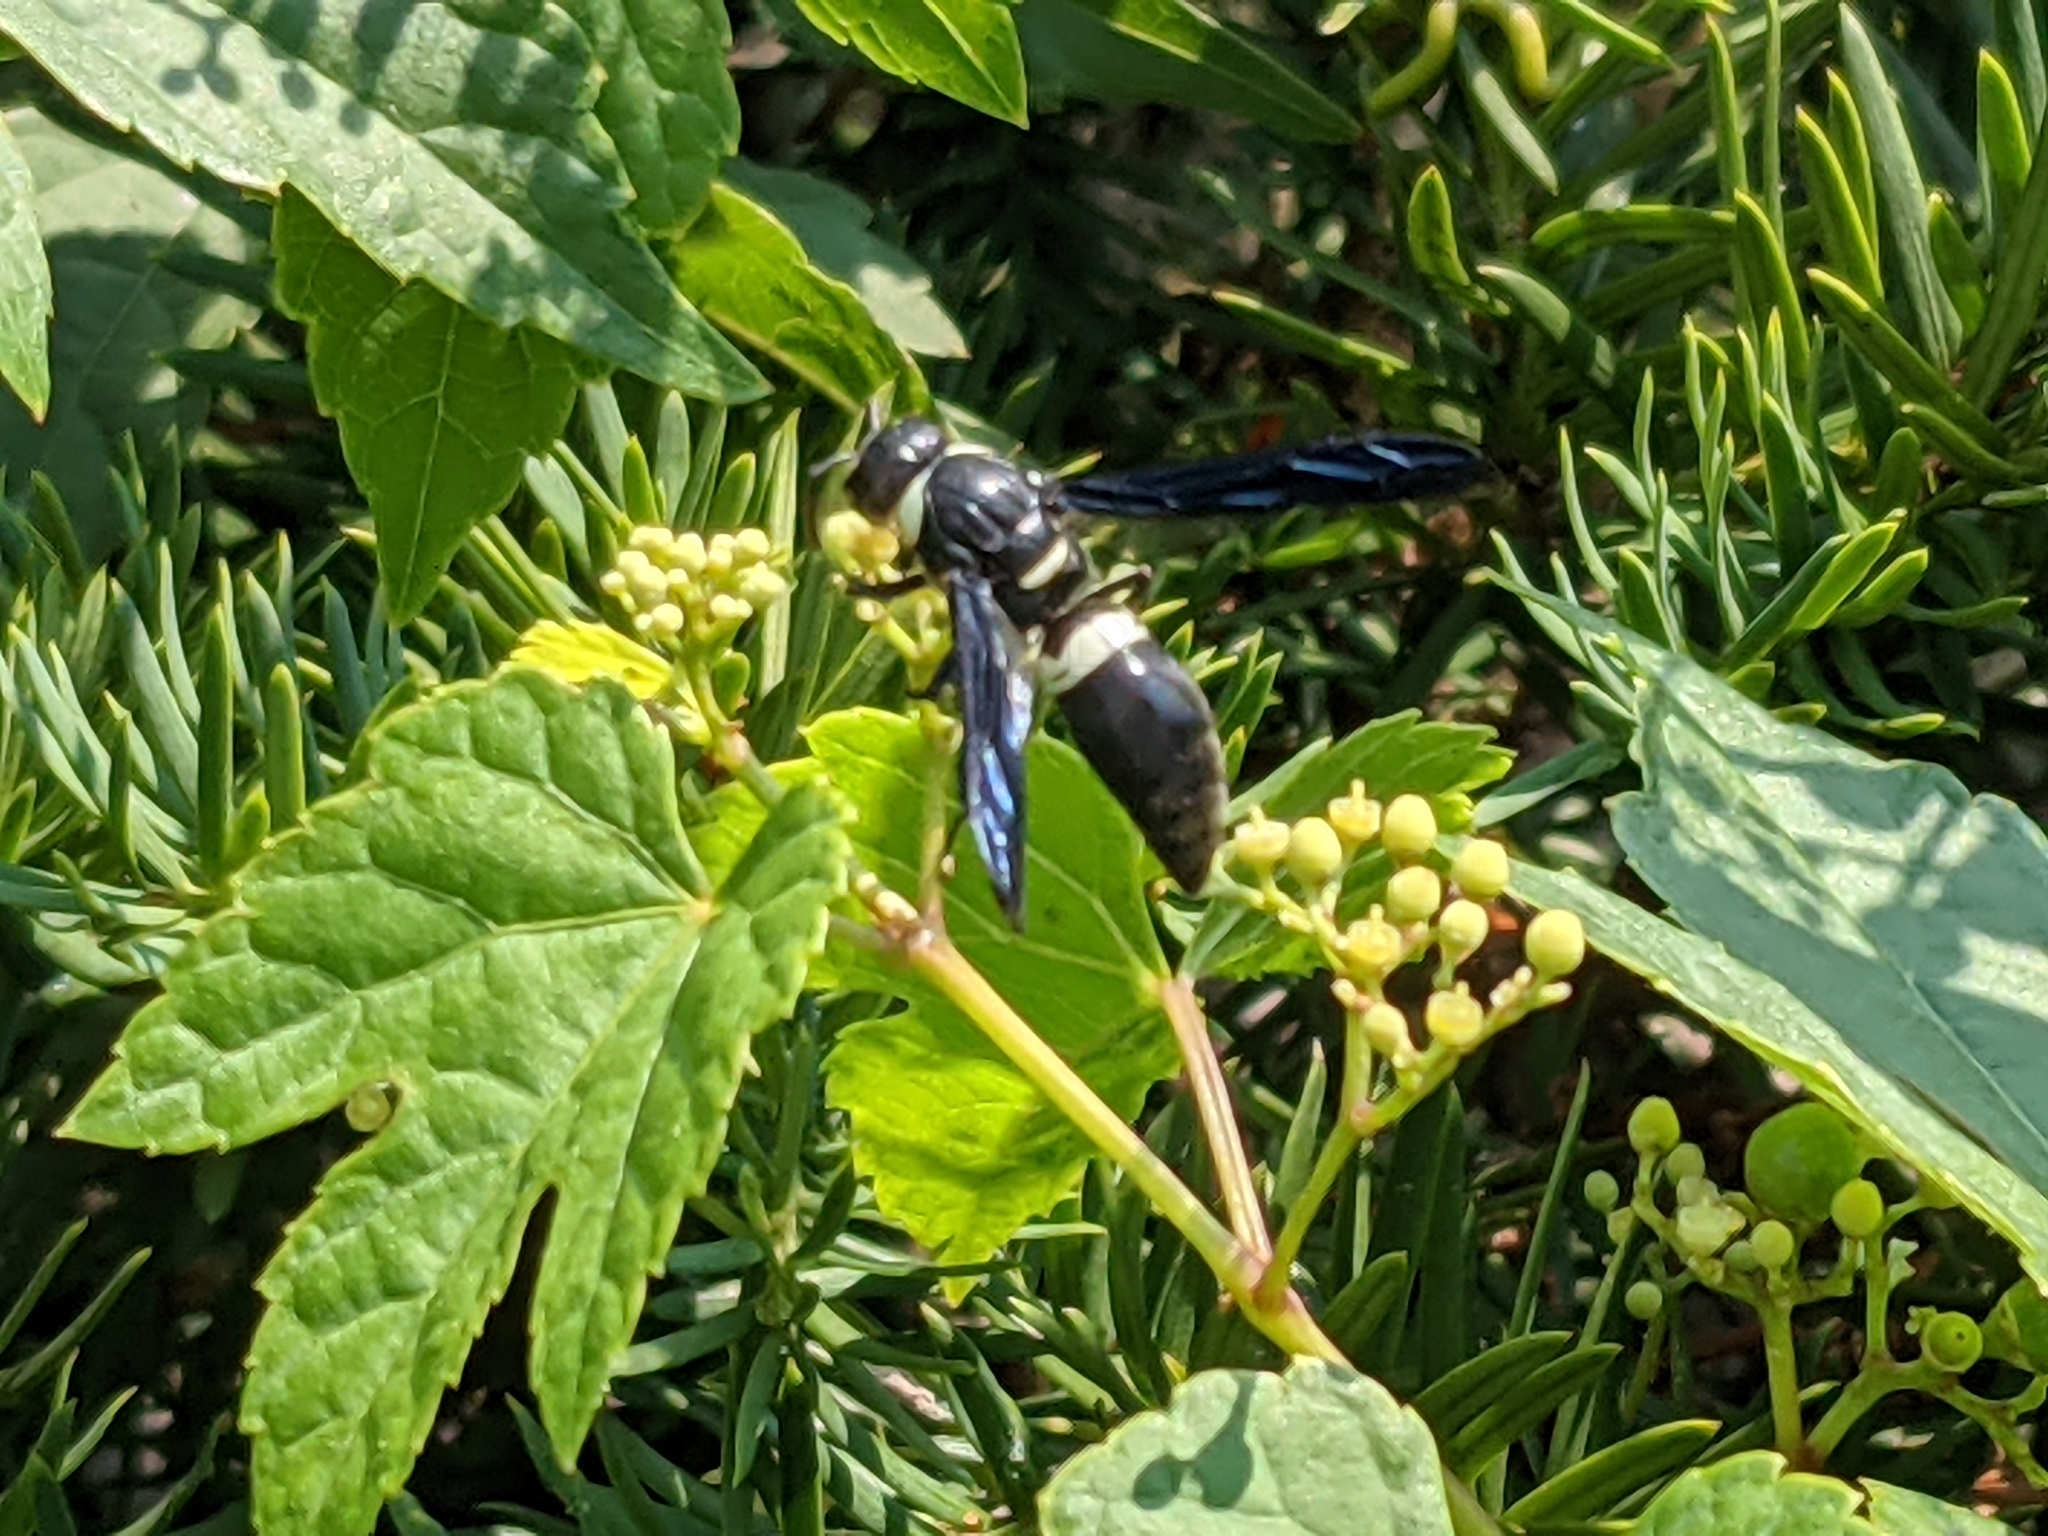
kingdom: Animalia
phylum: Arthropoda
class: Insecta
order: Hymenoptera
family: Eumenidae
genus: Monobia
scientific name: Monobia quadridens
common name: Four-toothed mason wasp
